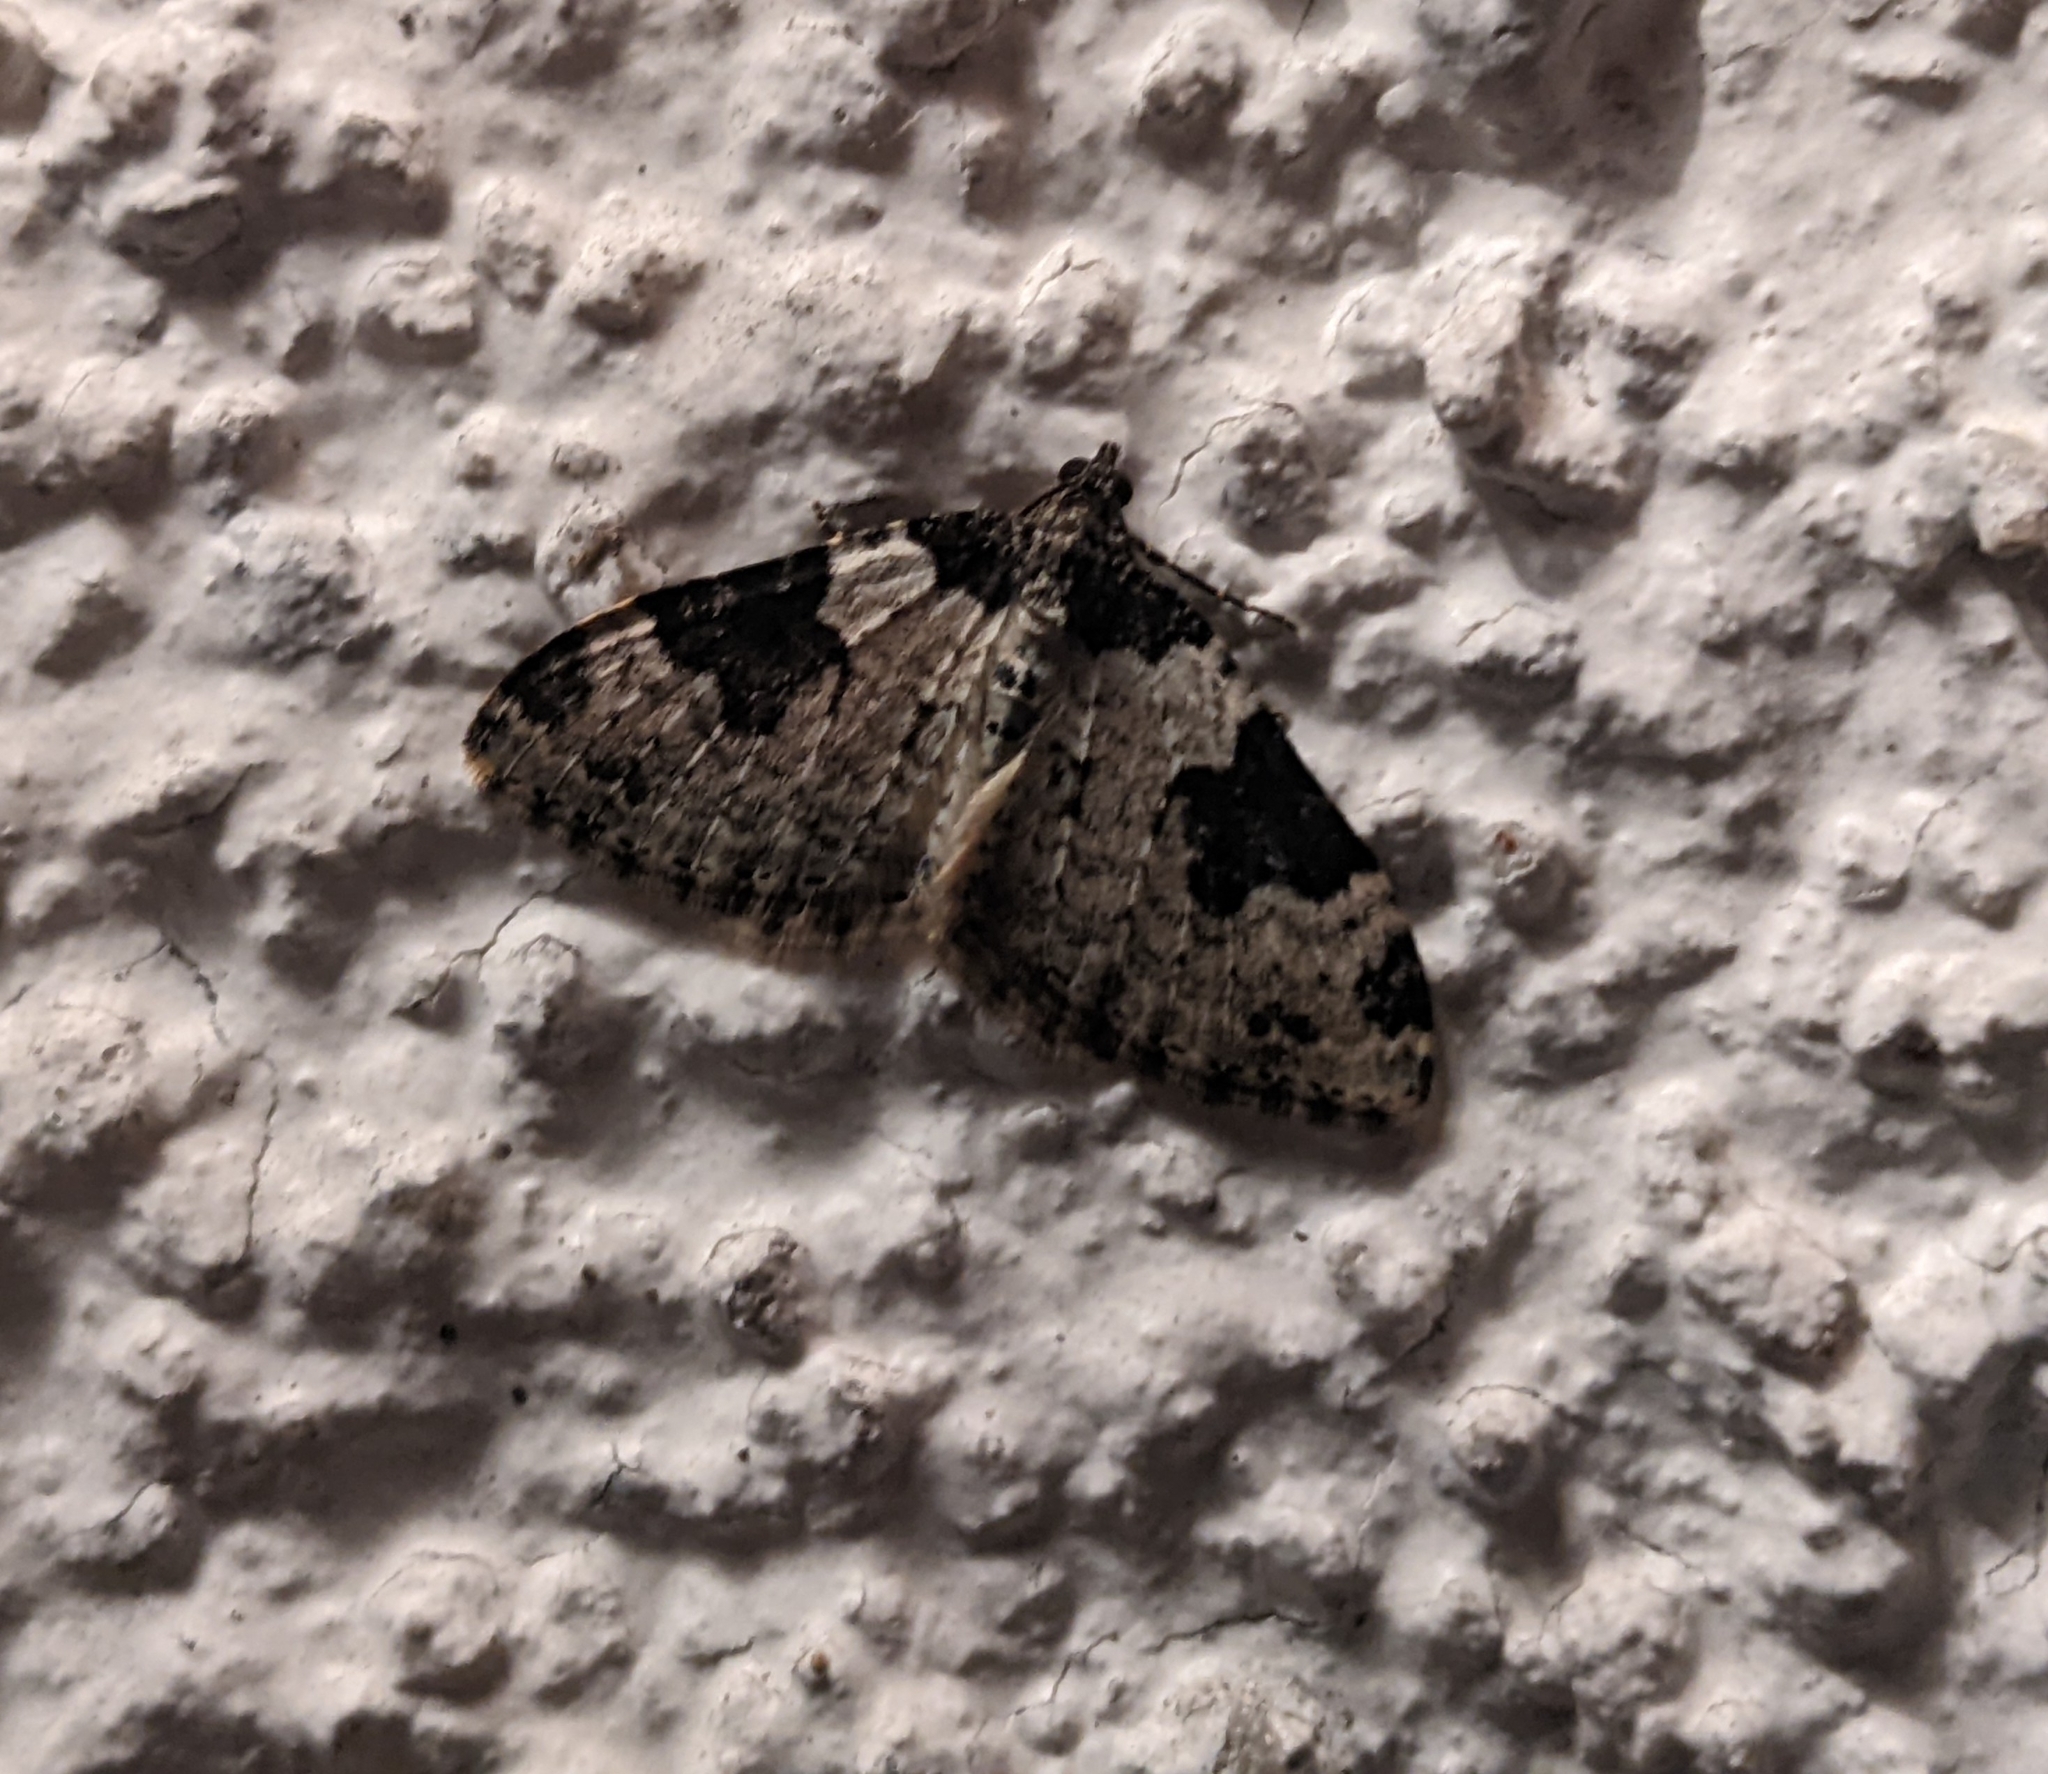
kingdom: Animalia
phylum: Arthropoda
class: Insecta
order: Lepidoptera
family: Geometridae
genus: Xanthorhoe
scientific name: Xanthorhoe fluctuata
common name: Garden carpet
